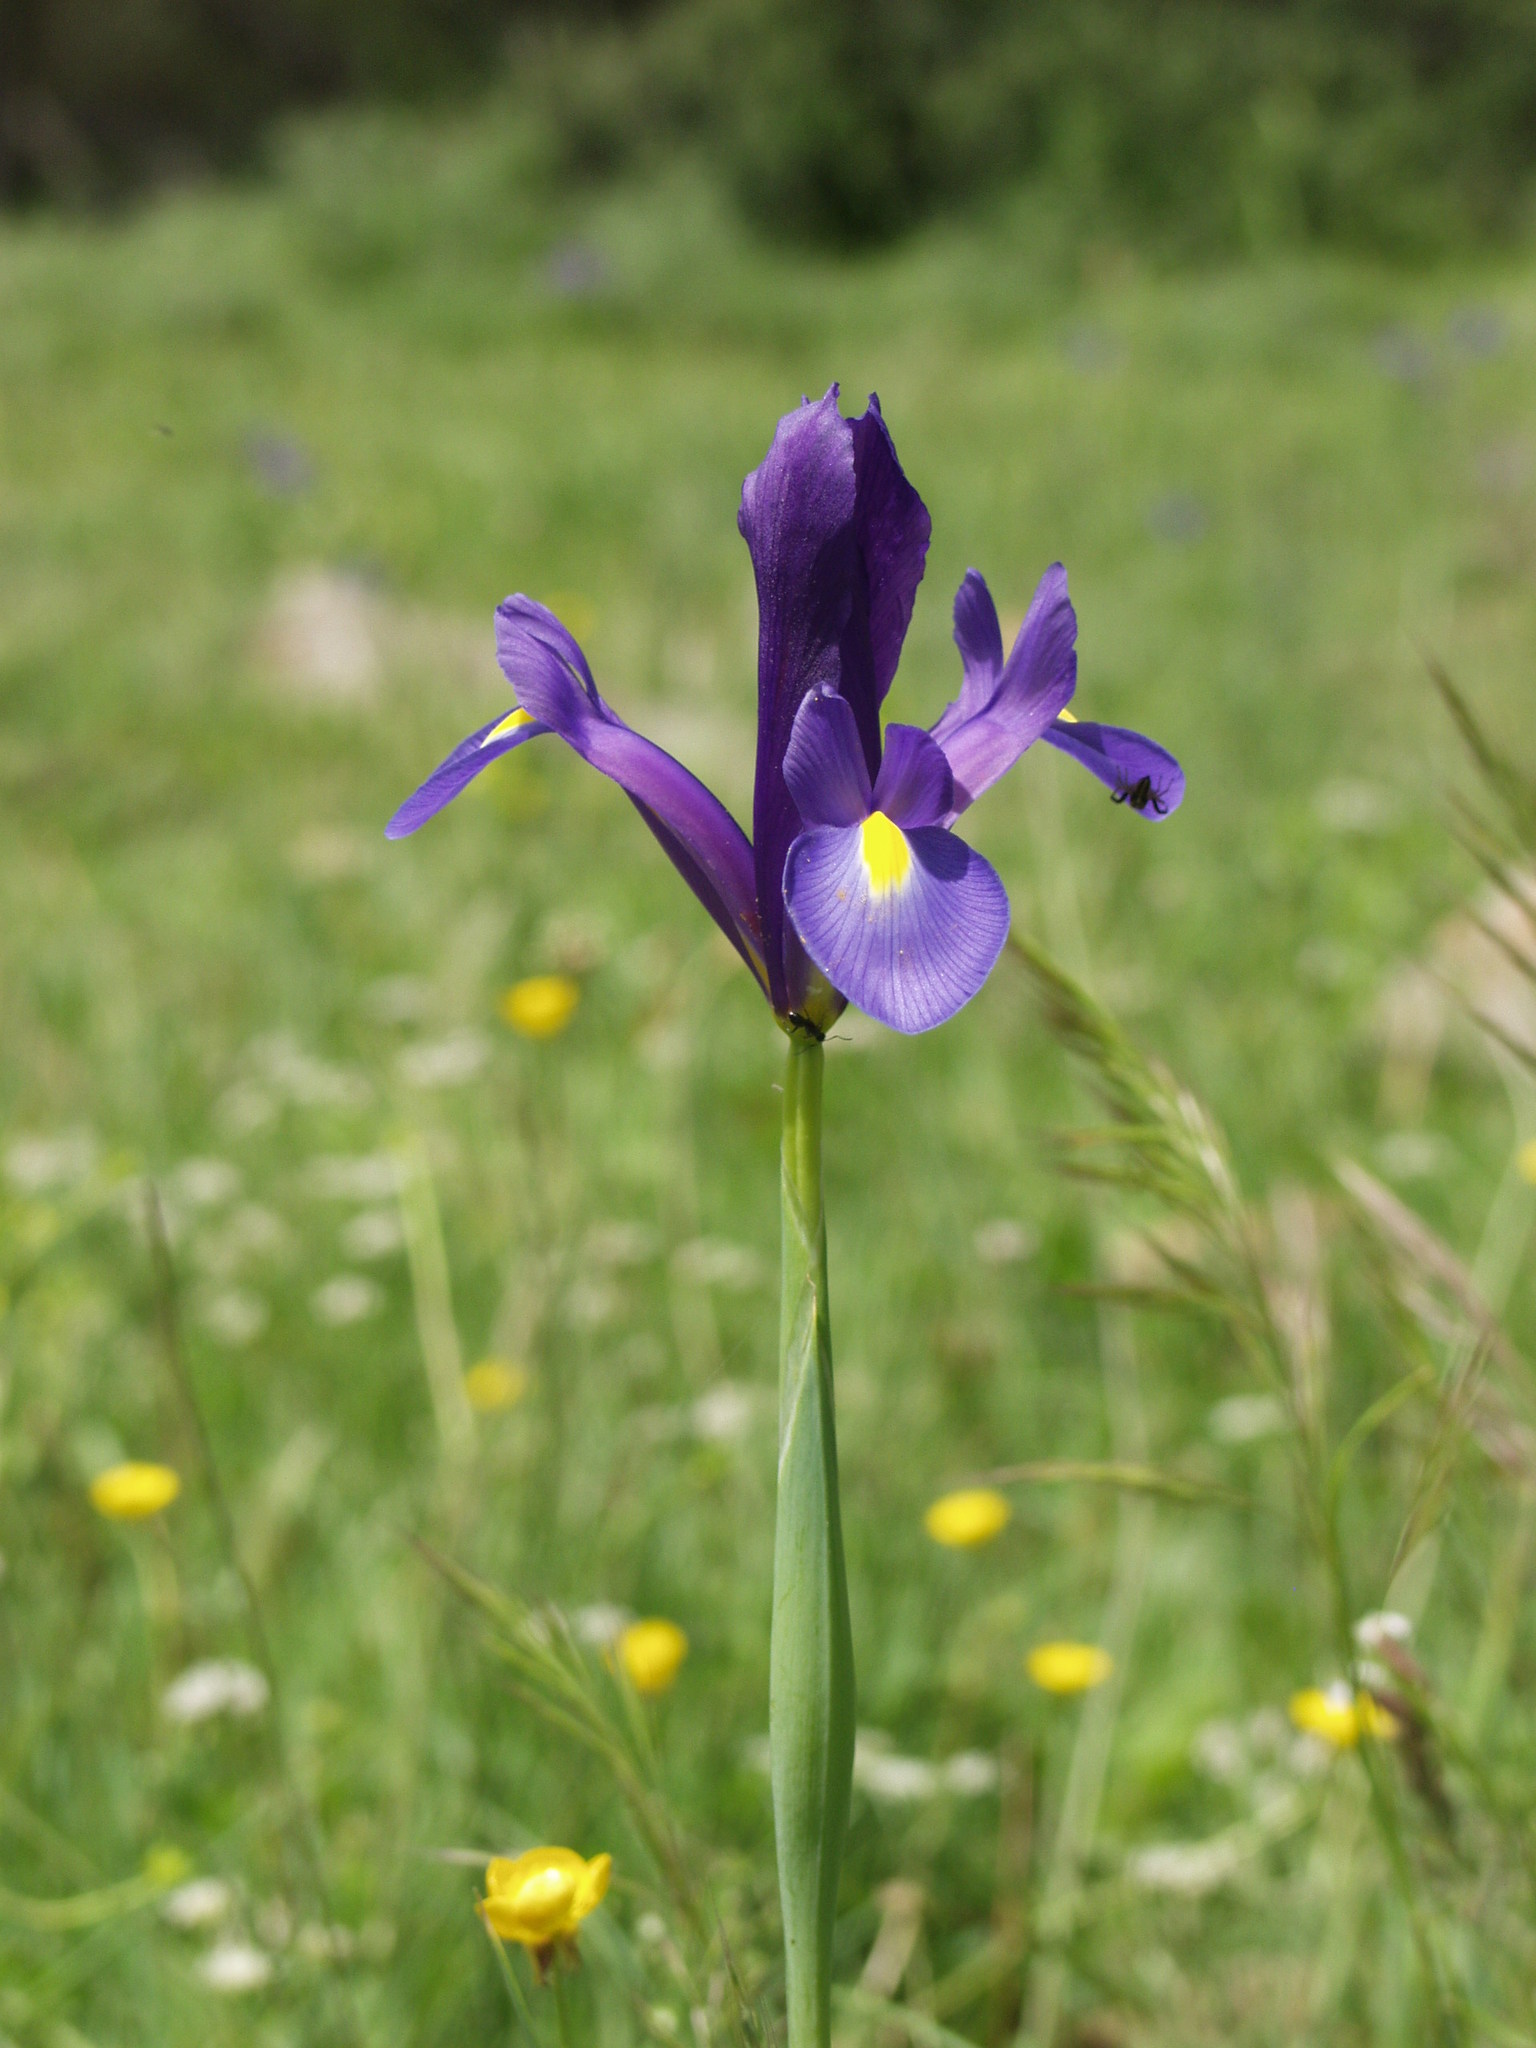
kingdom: Plantae
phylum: Tracheophyta
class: Liliopsida
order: Asparagales
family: Iridaceae
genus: Iris
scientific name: Iris xiphium
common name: Spanish iris
